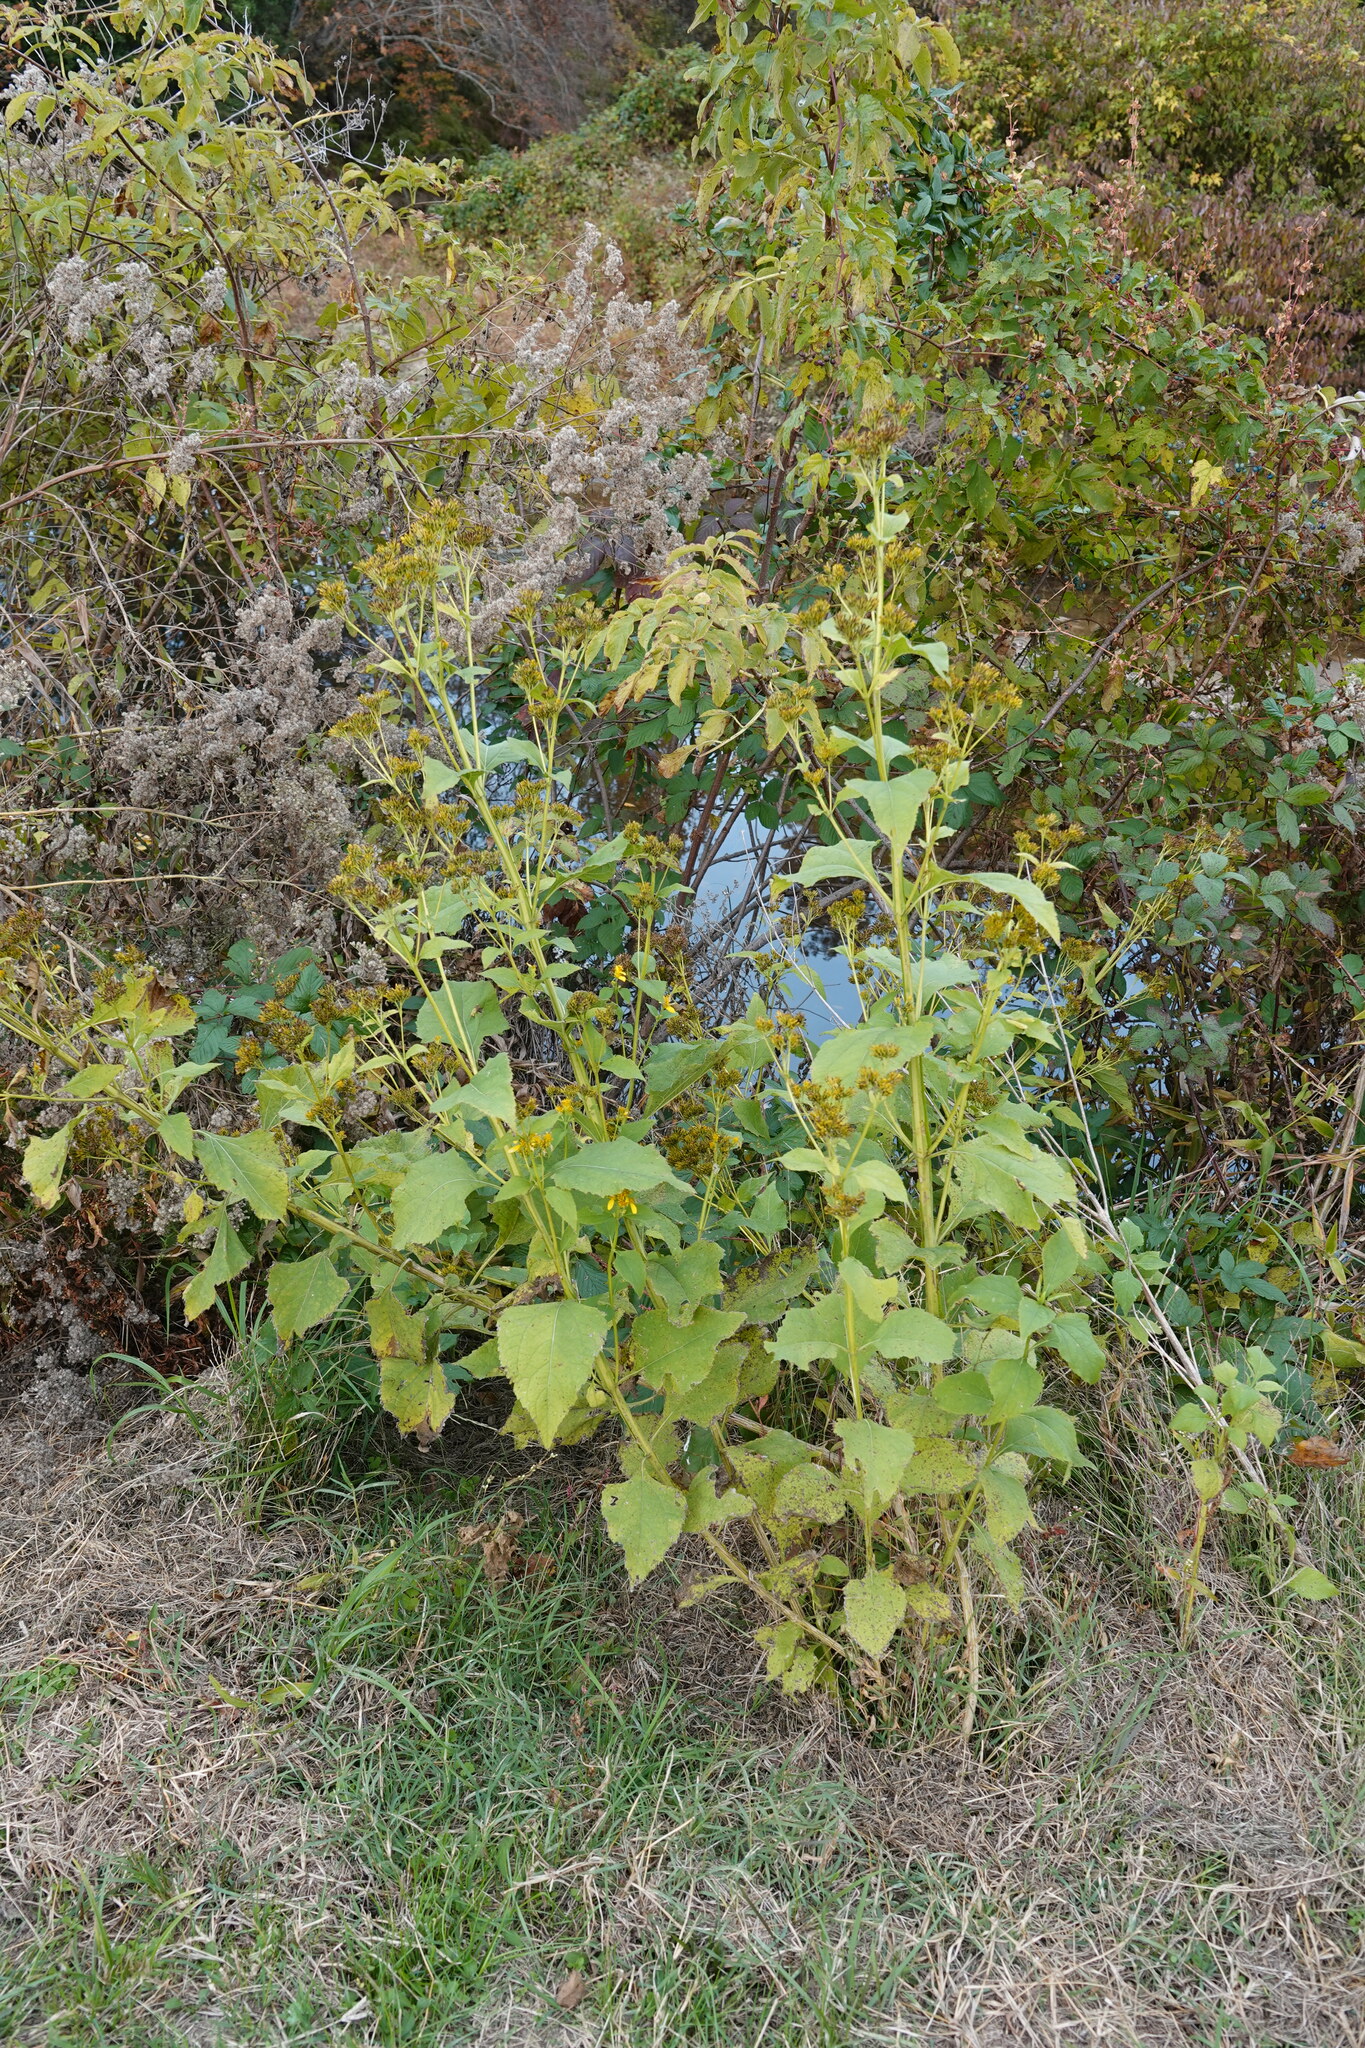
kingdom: Plantae
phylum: Tracheophyta
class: Magnoliopsida
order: Asterales
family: Asteraceae
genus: Verbesina
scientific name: Verbesina occidentalis
